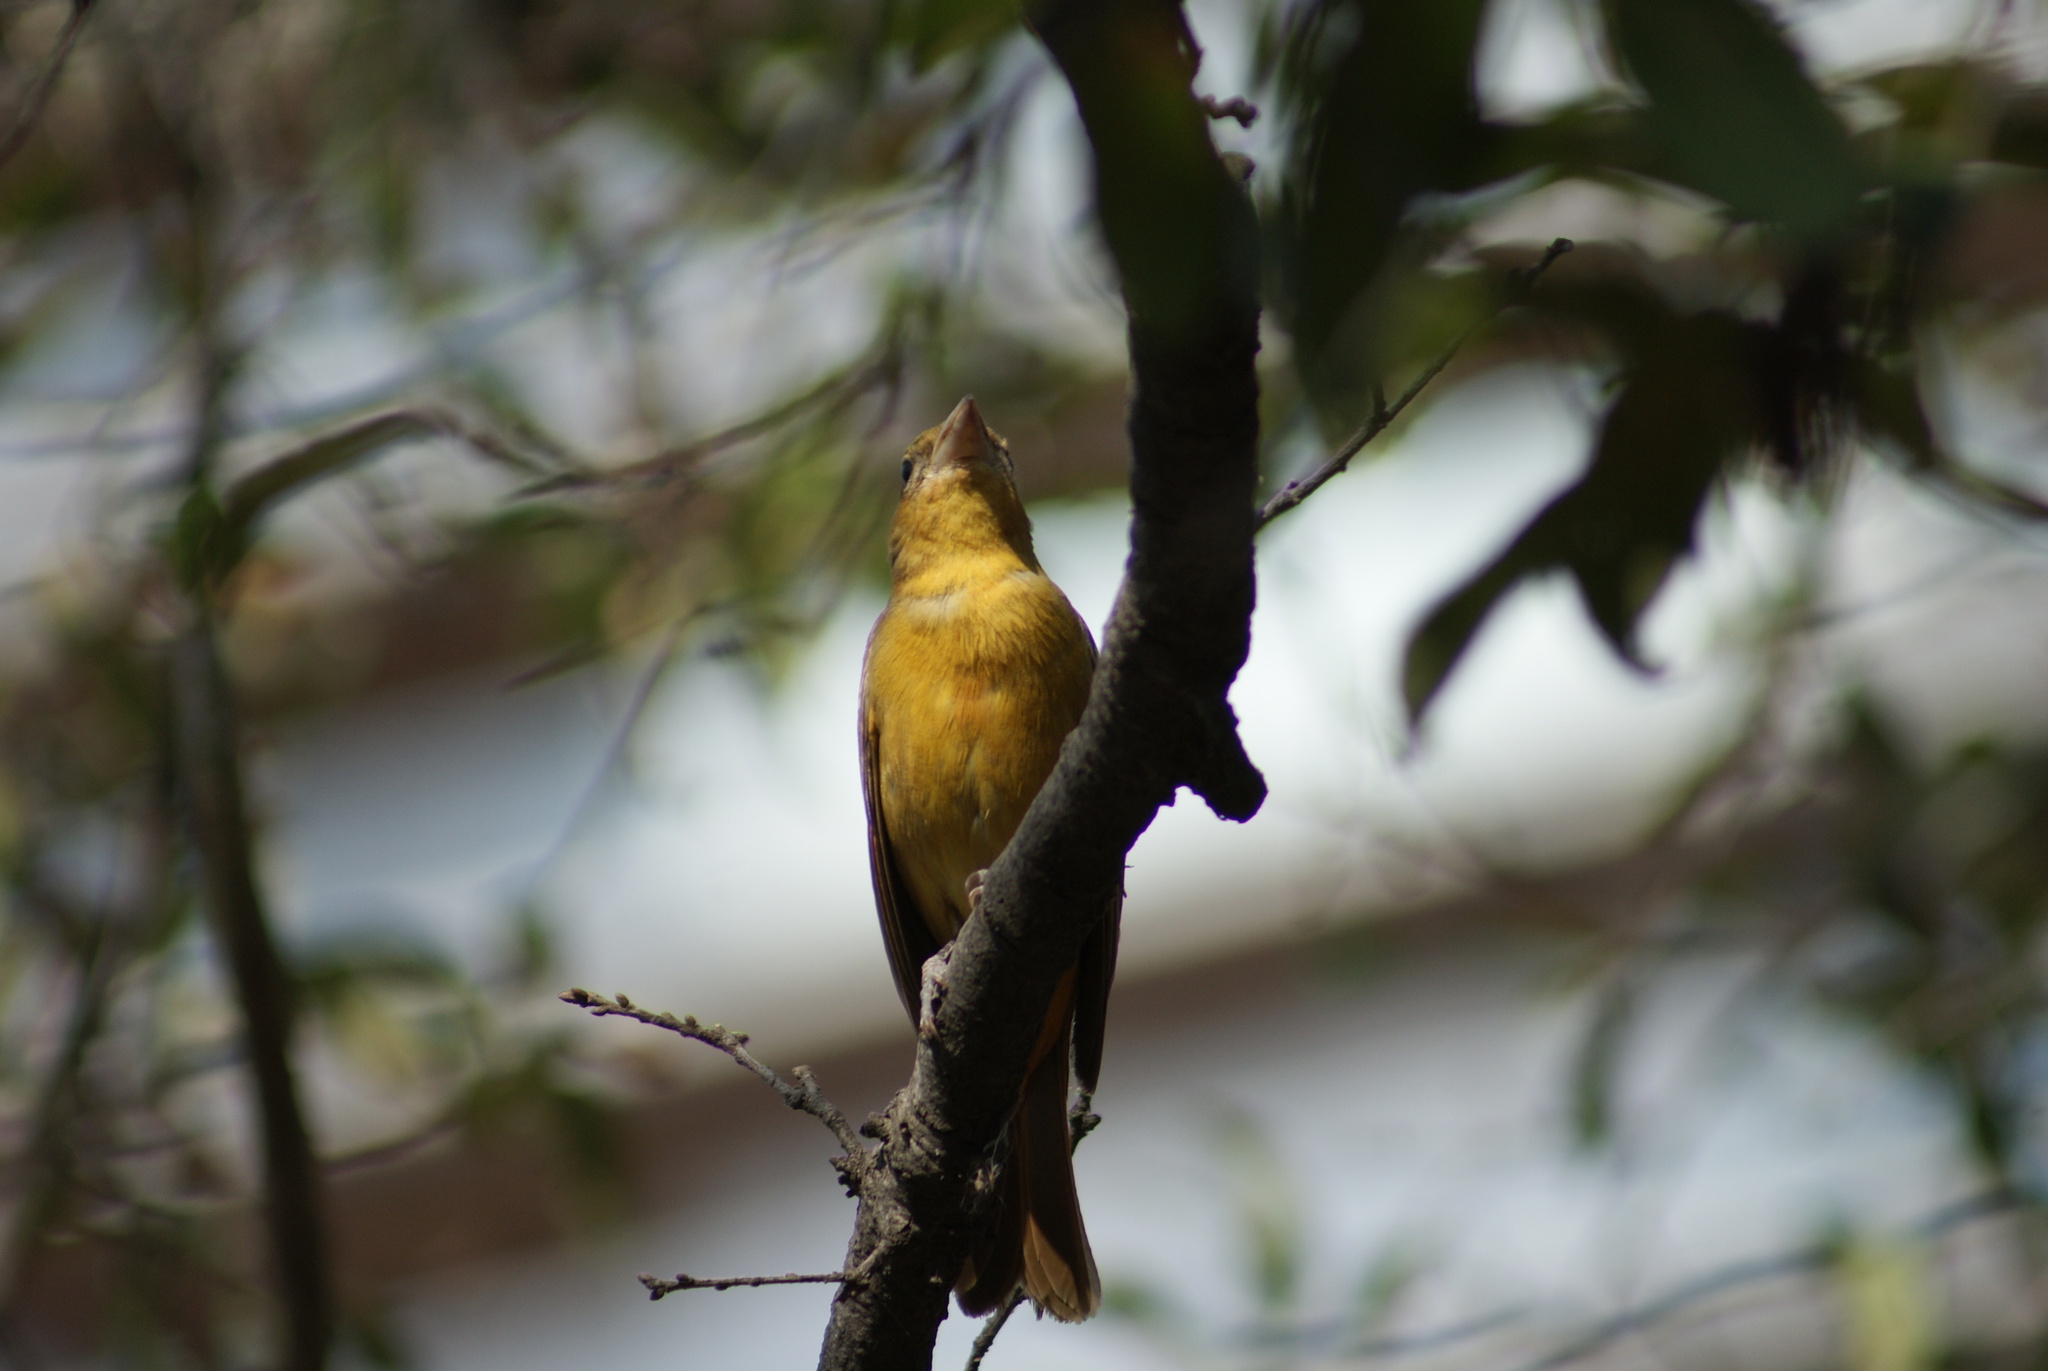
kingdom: Animalia
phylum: Chordata
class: Aves
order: Passeriformes
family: Cardinalidae
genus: Piranga
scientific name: Piranga rubra
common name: Summer tanager
